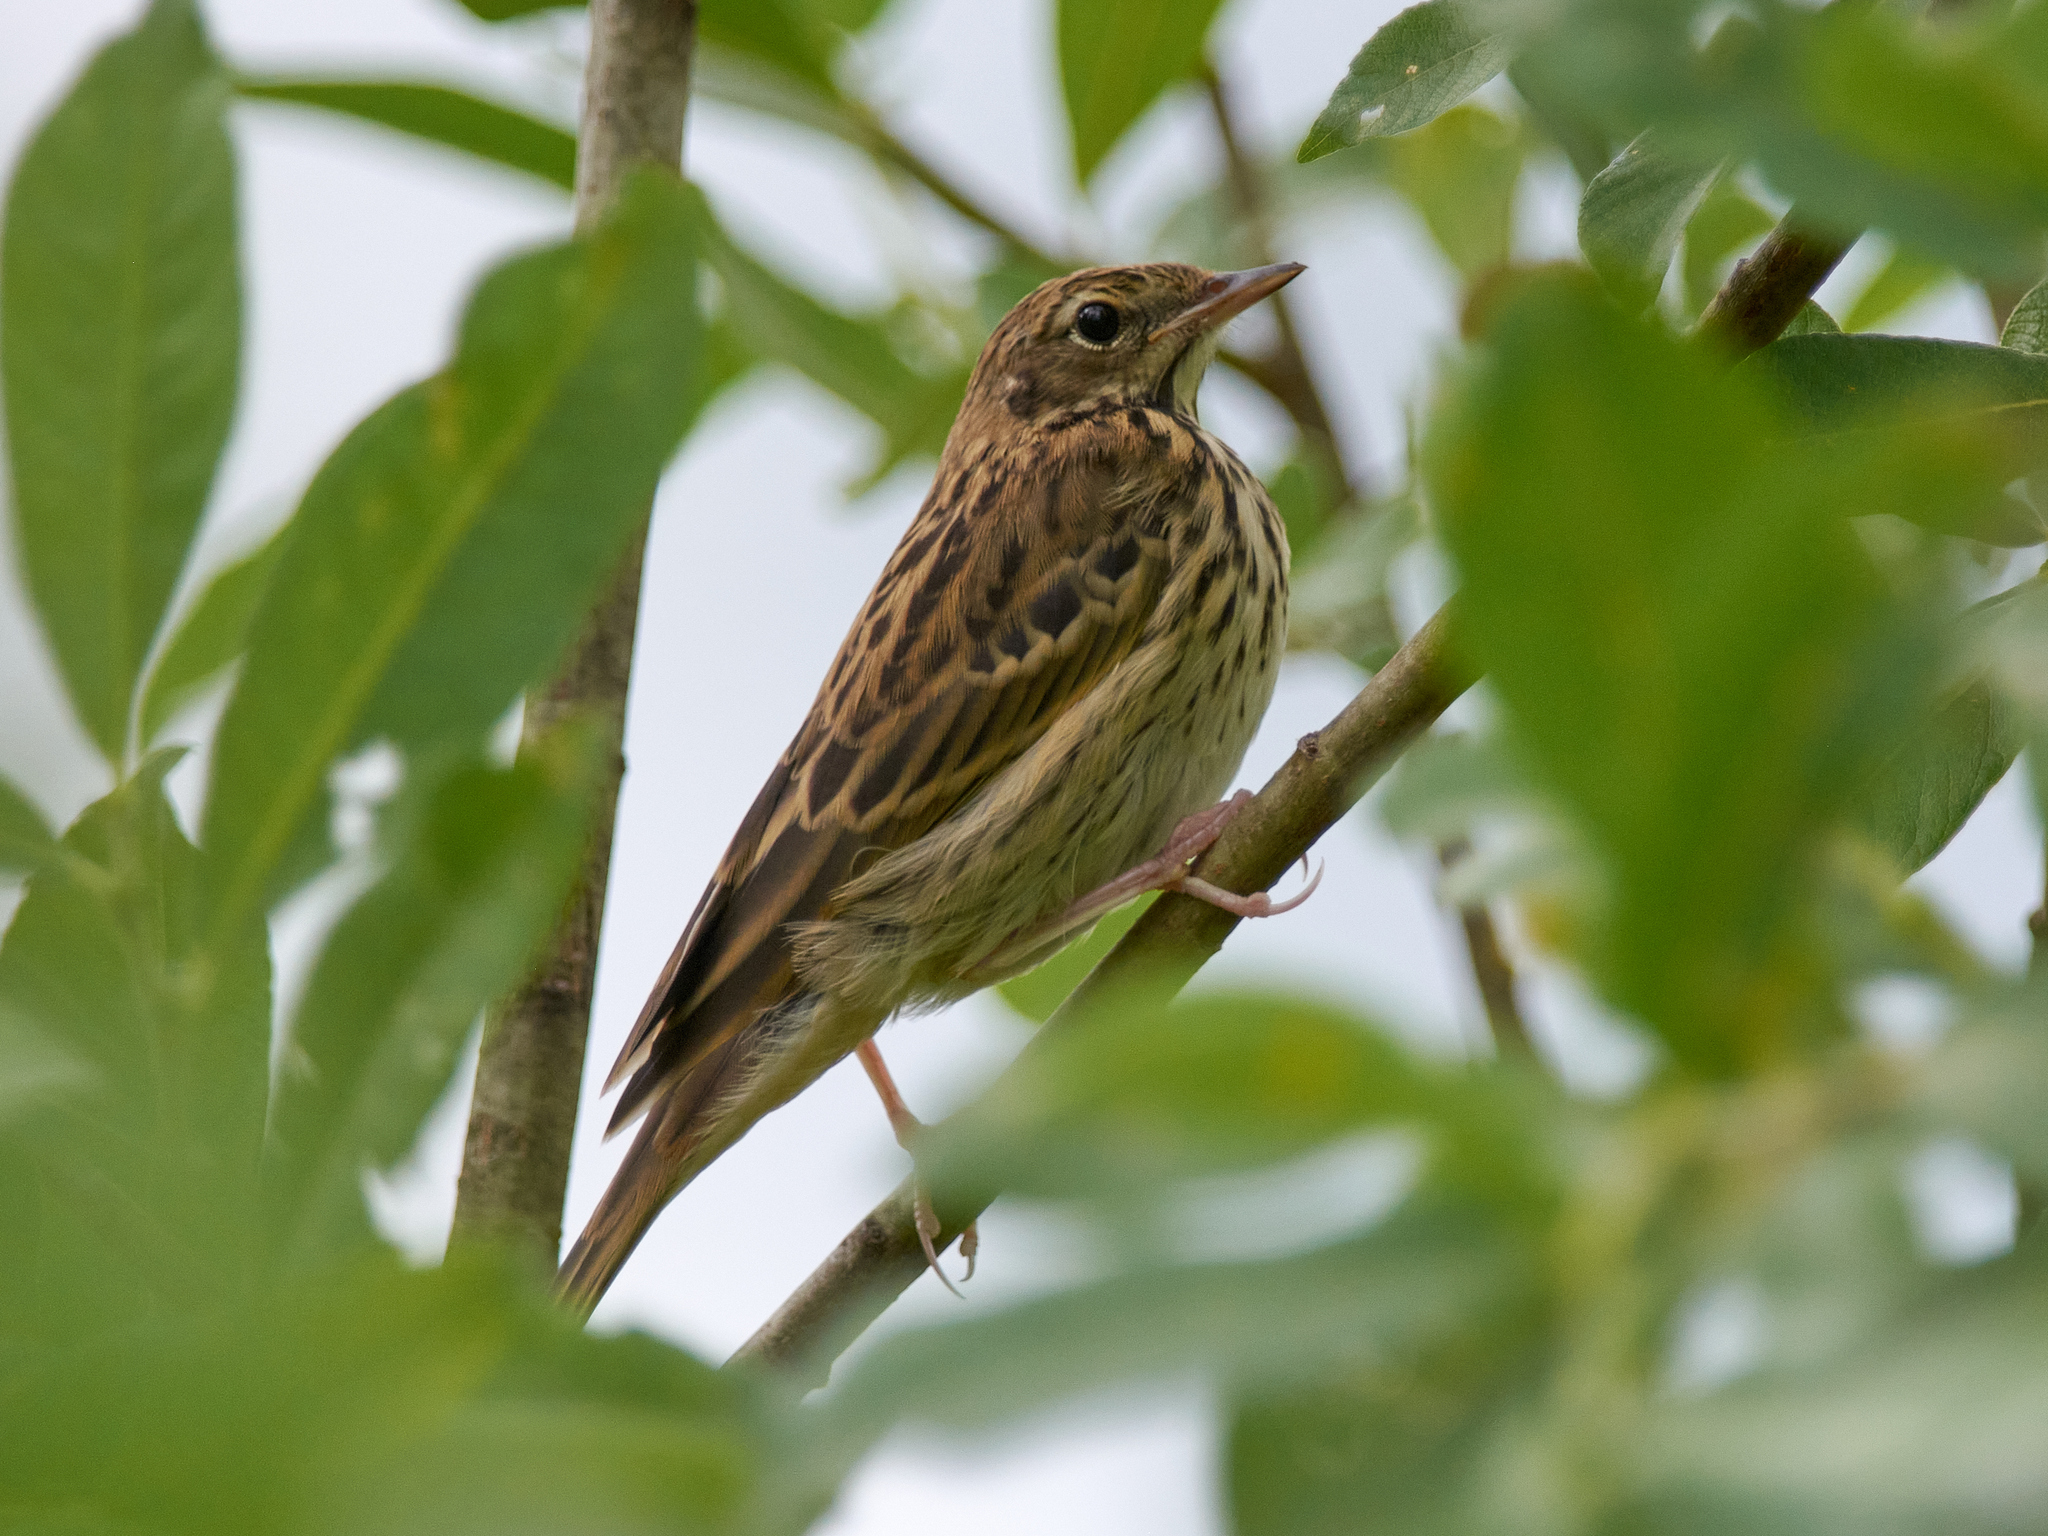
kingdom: Animalia
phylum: Chordata
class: Aves
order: Passeriformes
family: Motacillidae
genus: Anthus
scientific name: Anthus trivialis
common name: Tree pipit
